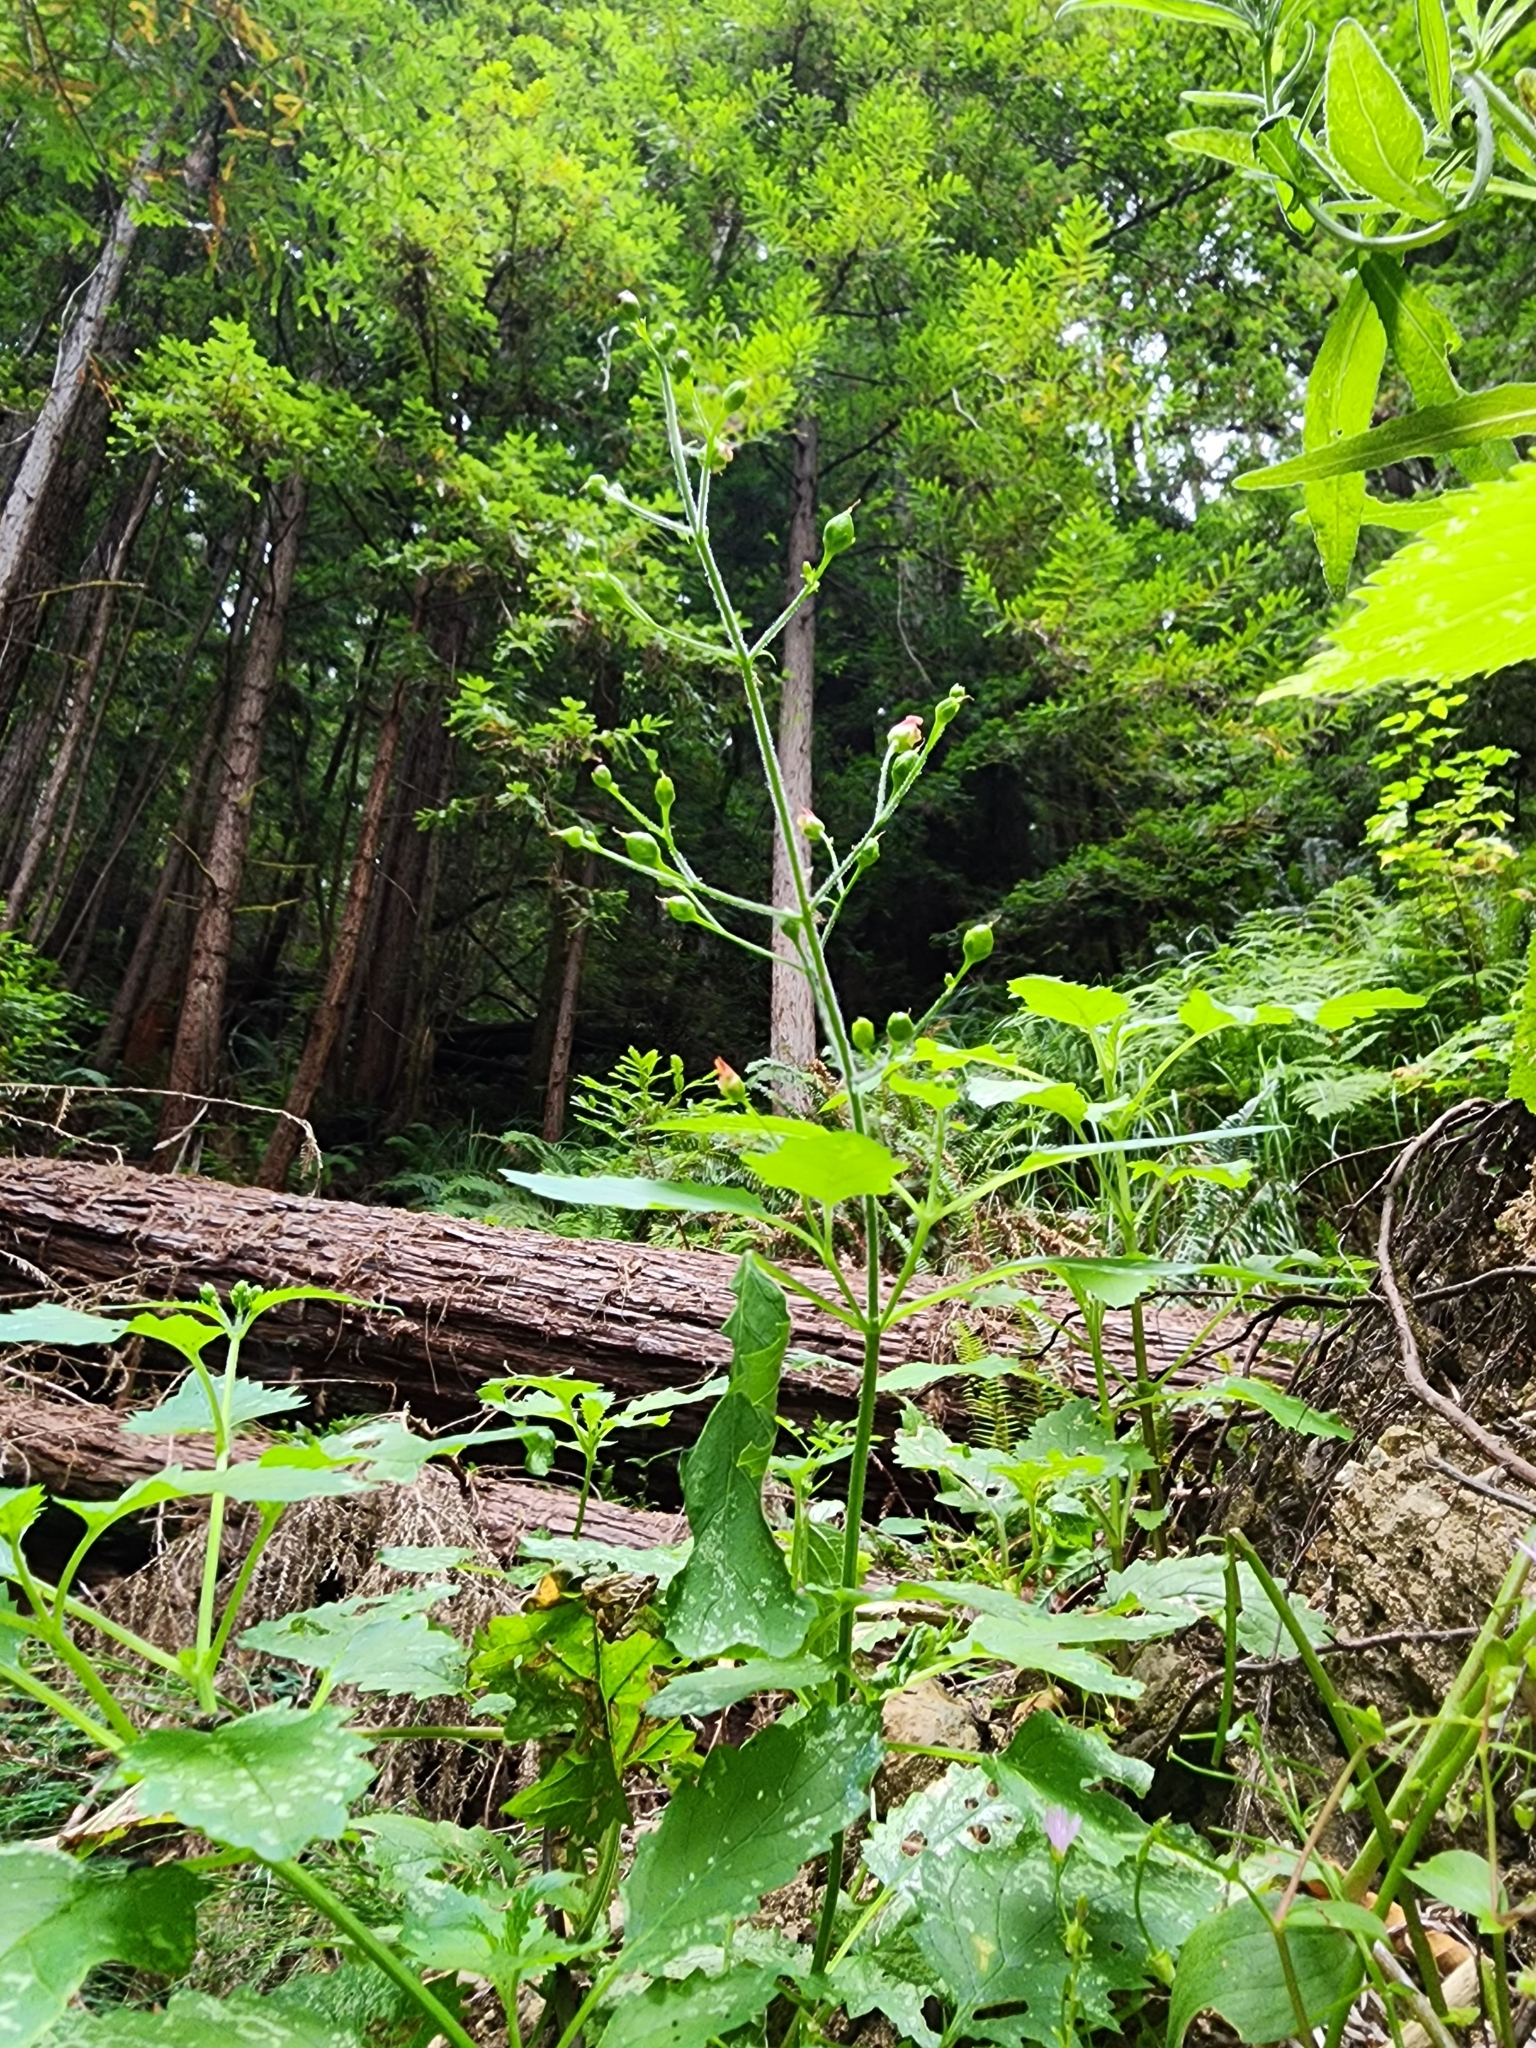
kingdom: Plantae
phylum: Tracheophyta
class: Magnoliopsida
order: Lamiales
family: Scrophulariaceae
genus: Scrophularia
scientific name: Scrophularia californica
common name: California figwort
